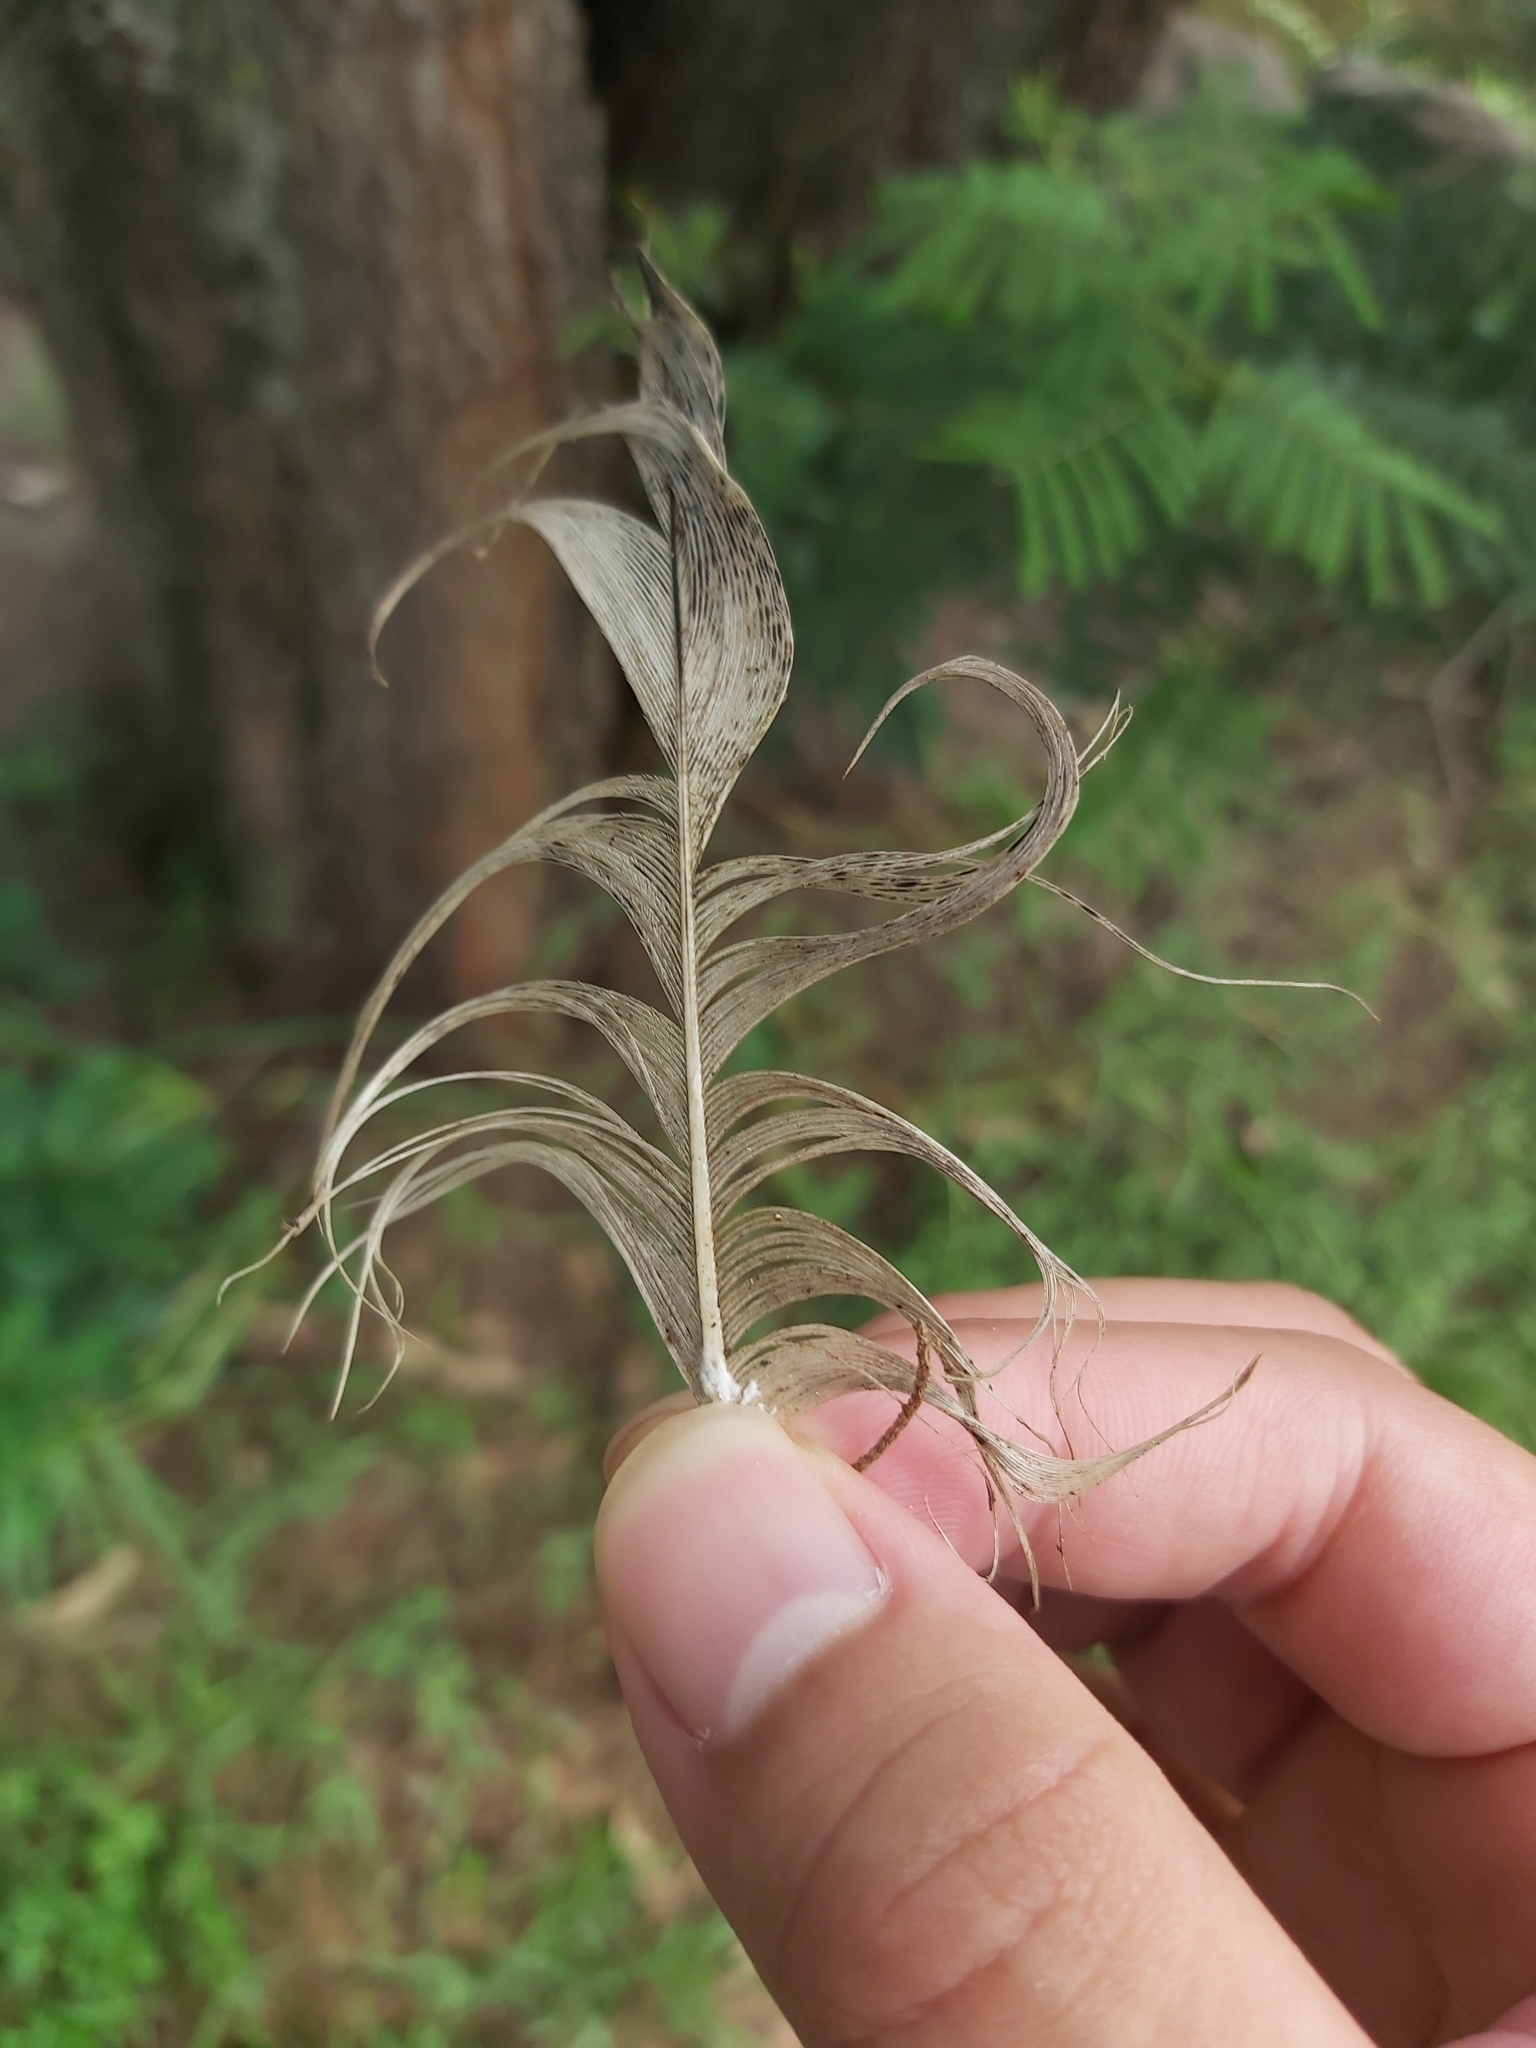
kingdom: Animalia
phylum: Chordata
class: Aves
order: Pelecaniformes
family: Threskiornithidae
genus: Threskiornis
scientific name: Threskiornis molucca
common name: Australian white ibis
